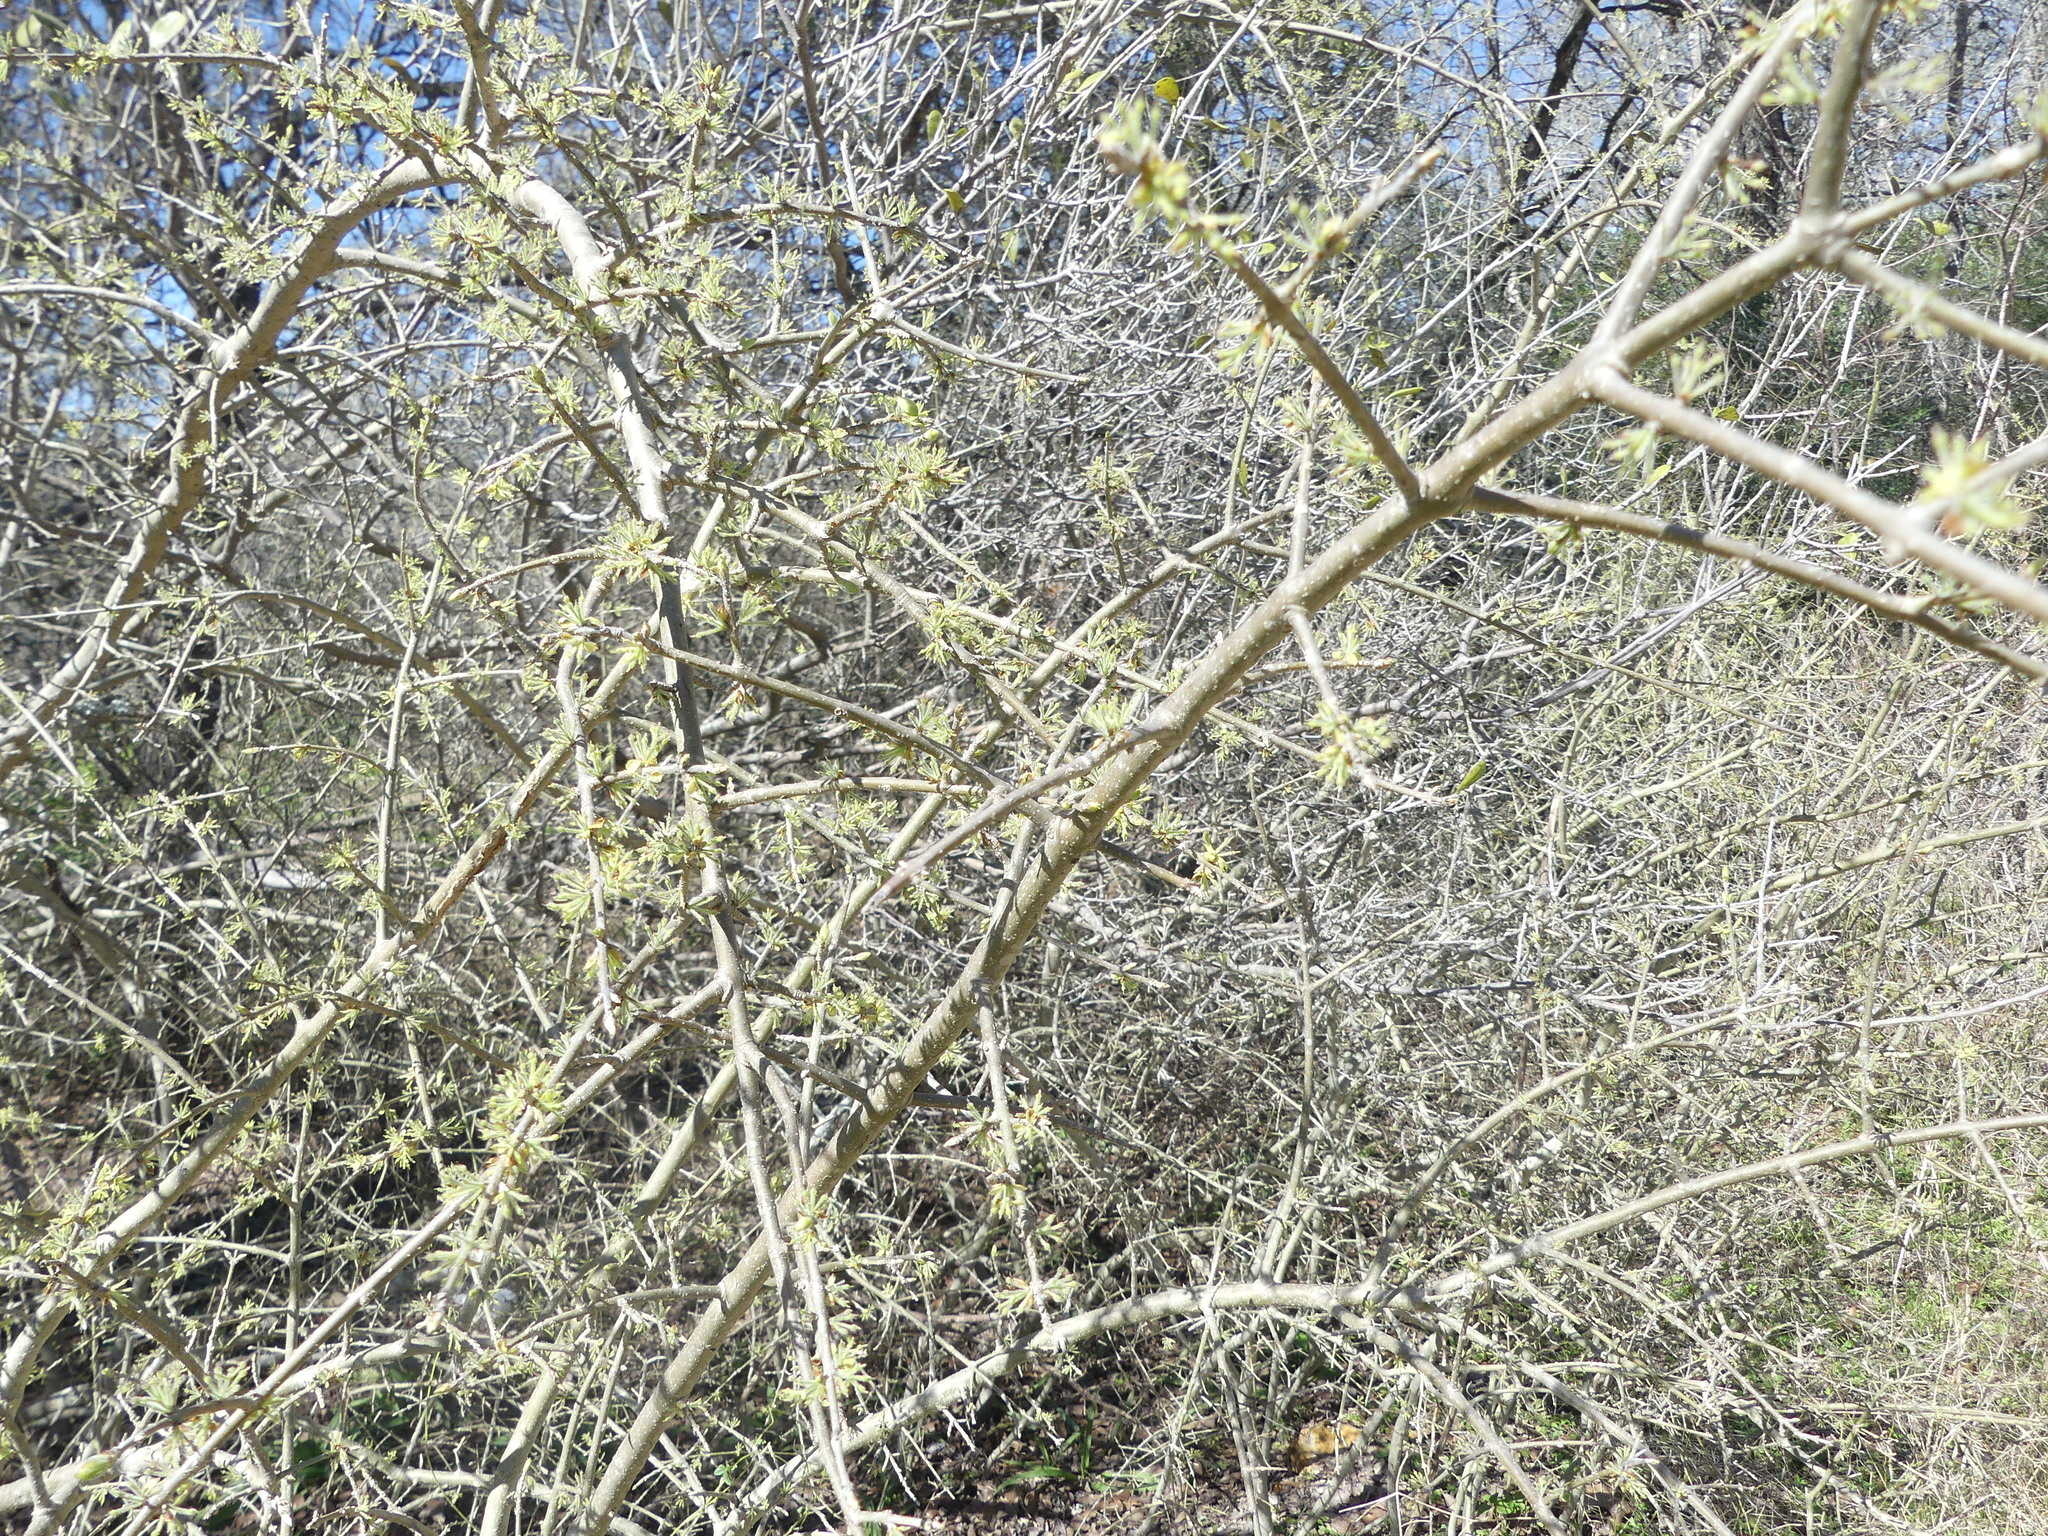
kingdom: Plantae
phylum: Tracheophyta
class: Magnoliopsida
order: Lamiales
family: Oleaceae
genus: Forestiera
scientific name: Forestiera pubescens
